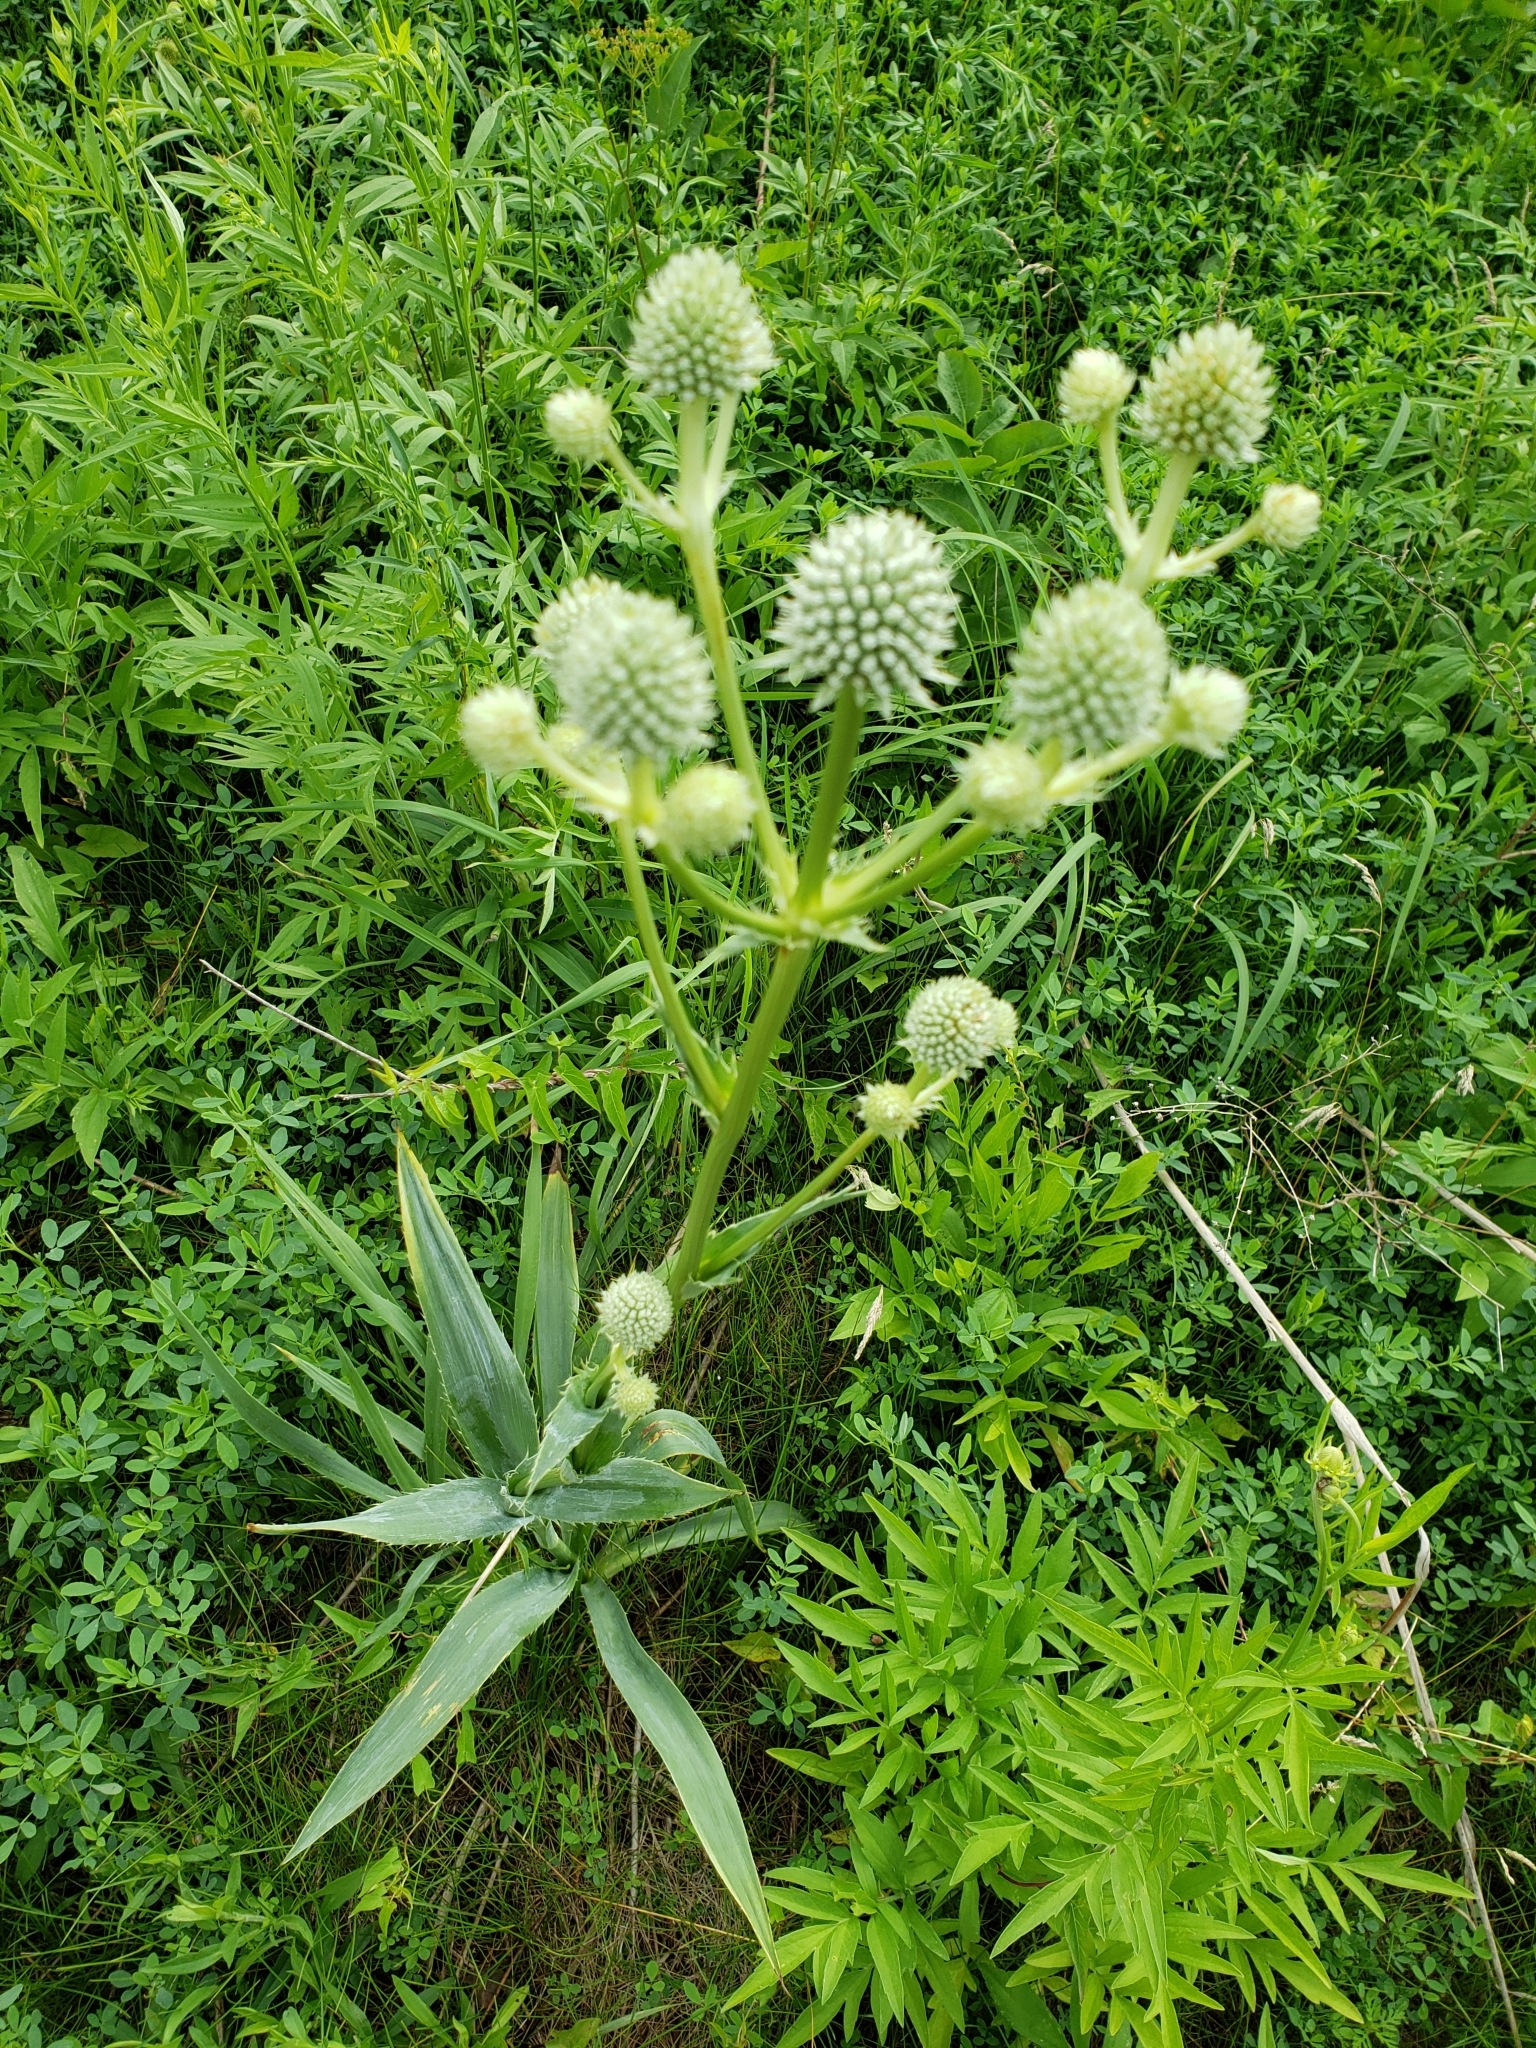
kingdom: Plantae
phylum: Tracheophyta
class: Magnoliopsida
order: Apiales
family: Apiaceae
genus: Eryngium
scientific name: Eryngium yuccifolium
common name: Button eryngo
